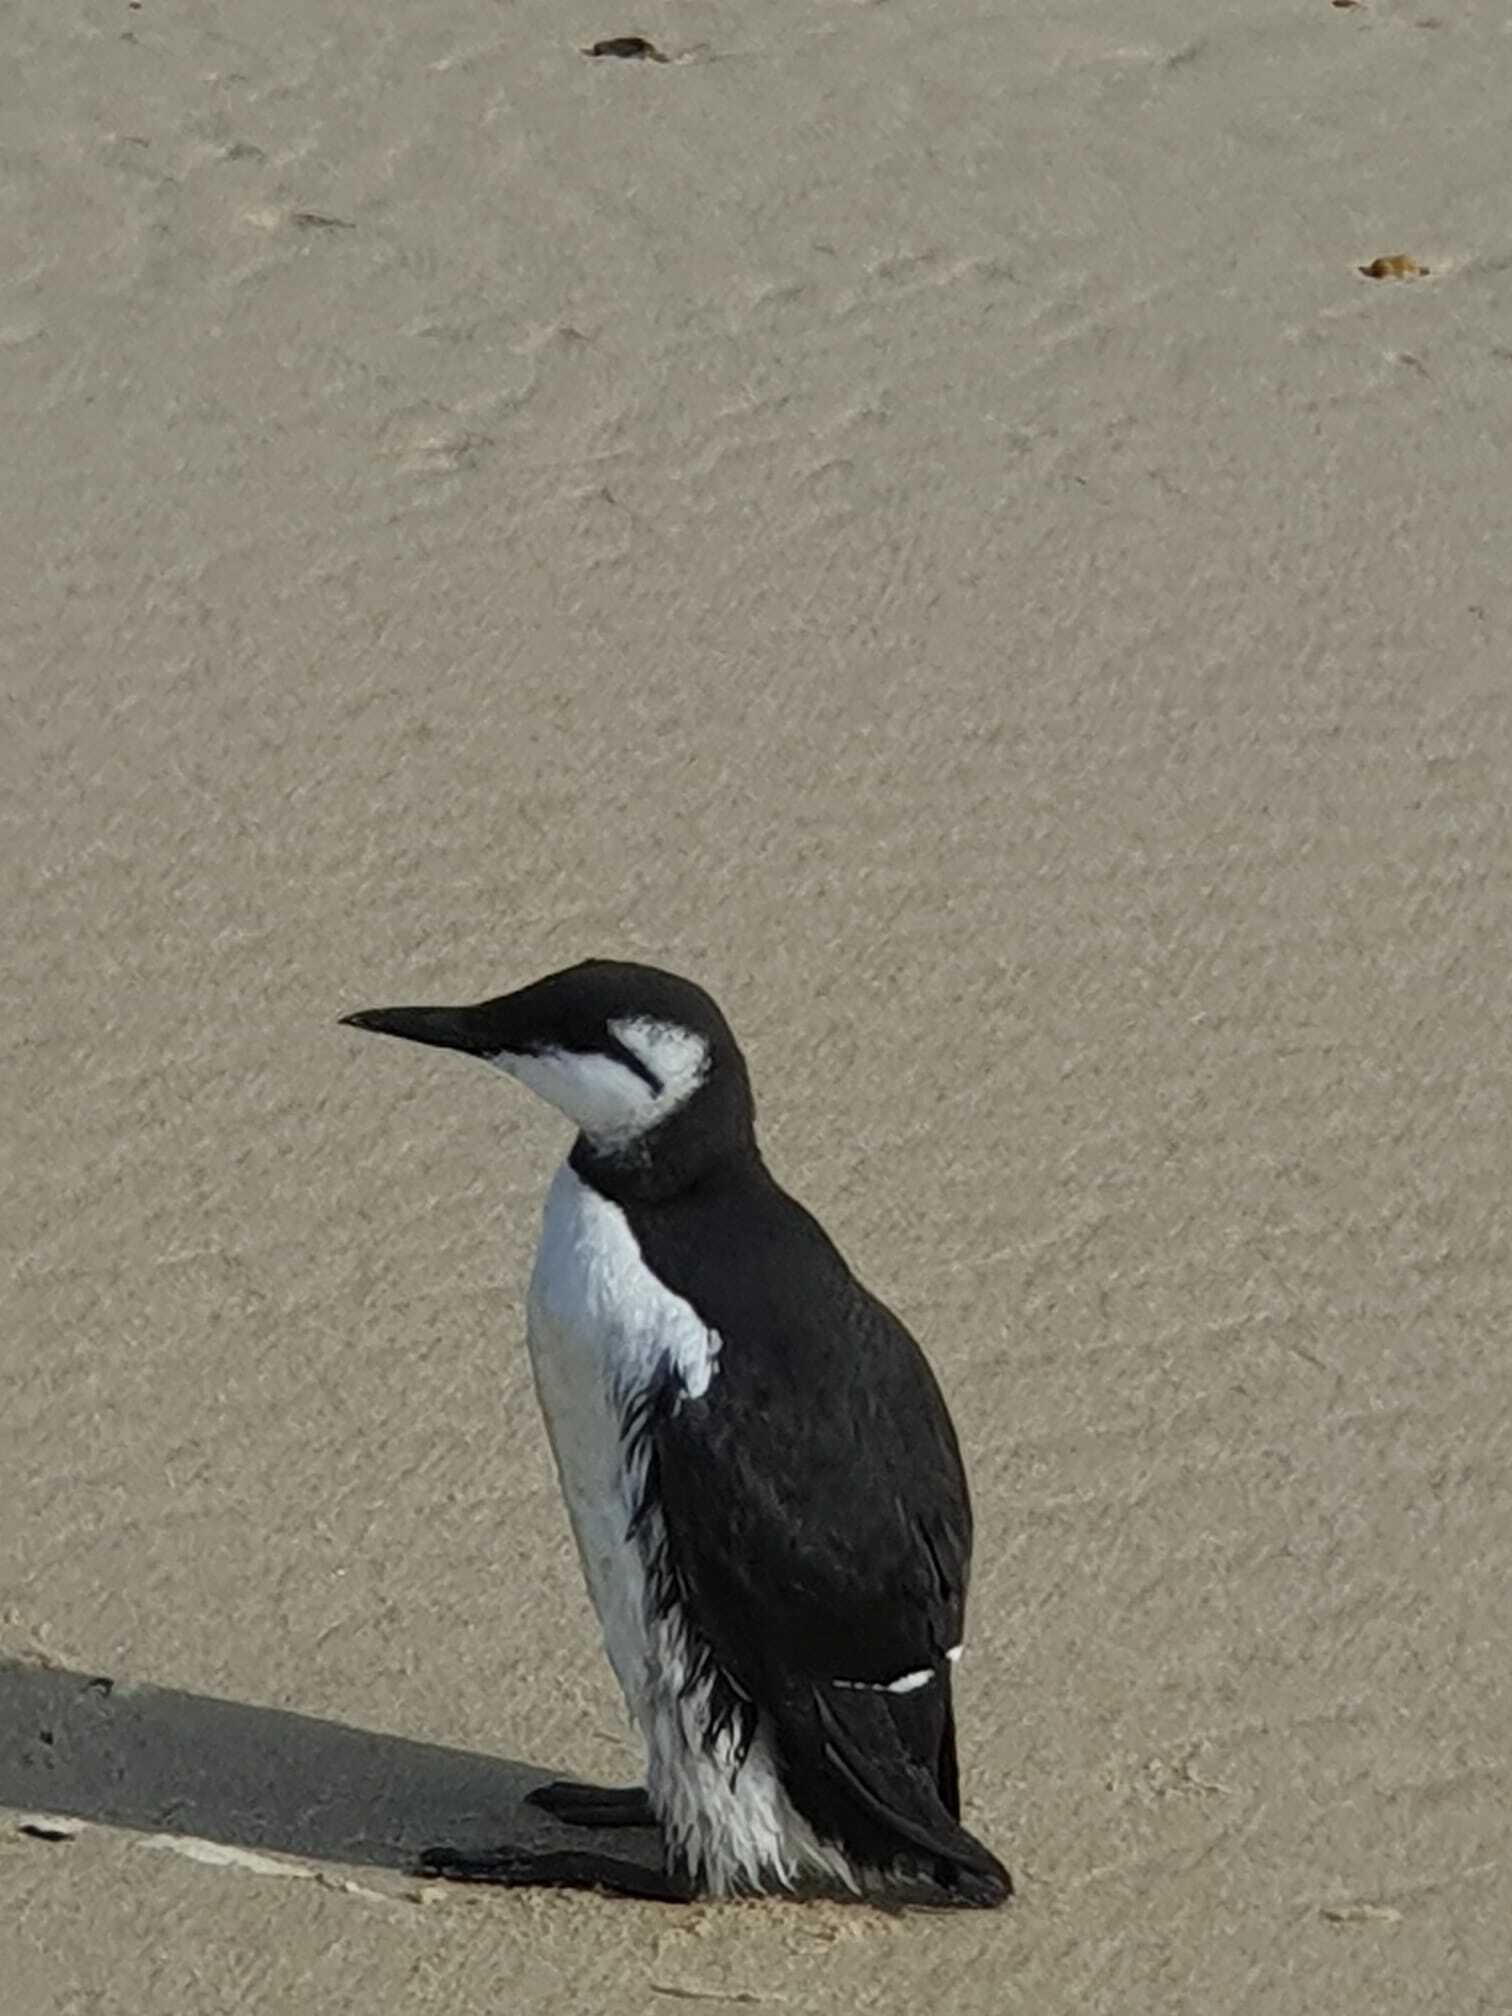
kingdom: Animalia
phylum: Chordata
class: Aves
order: Charadriiformes
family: Alcidae
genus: Uria
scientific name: Uria aalge
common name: Common murre
